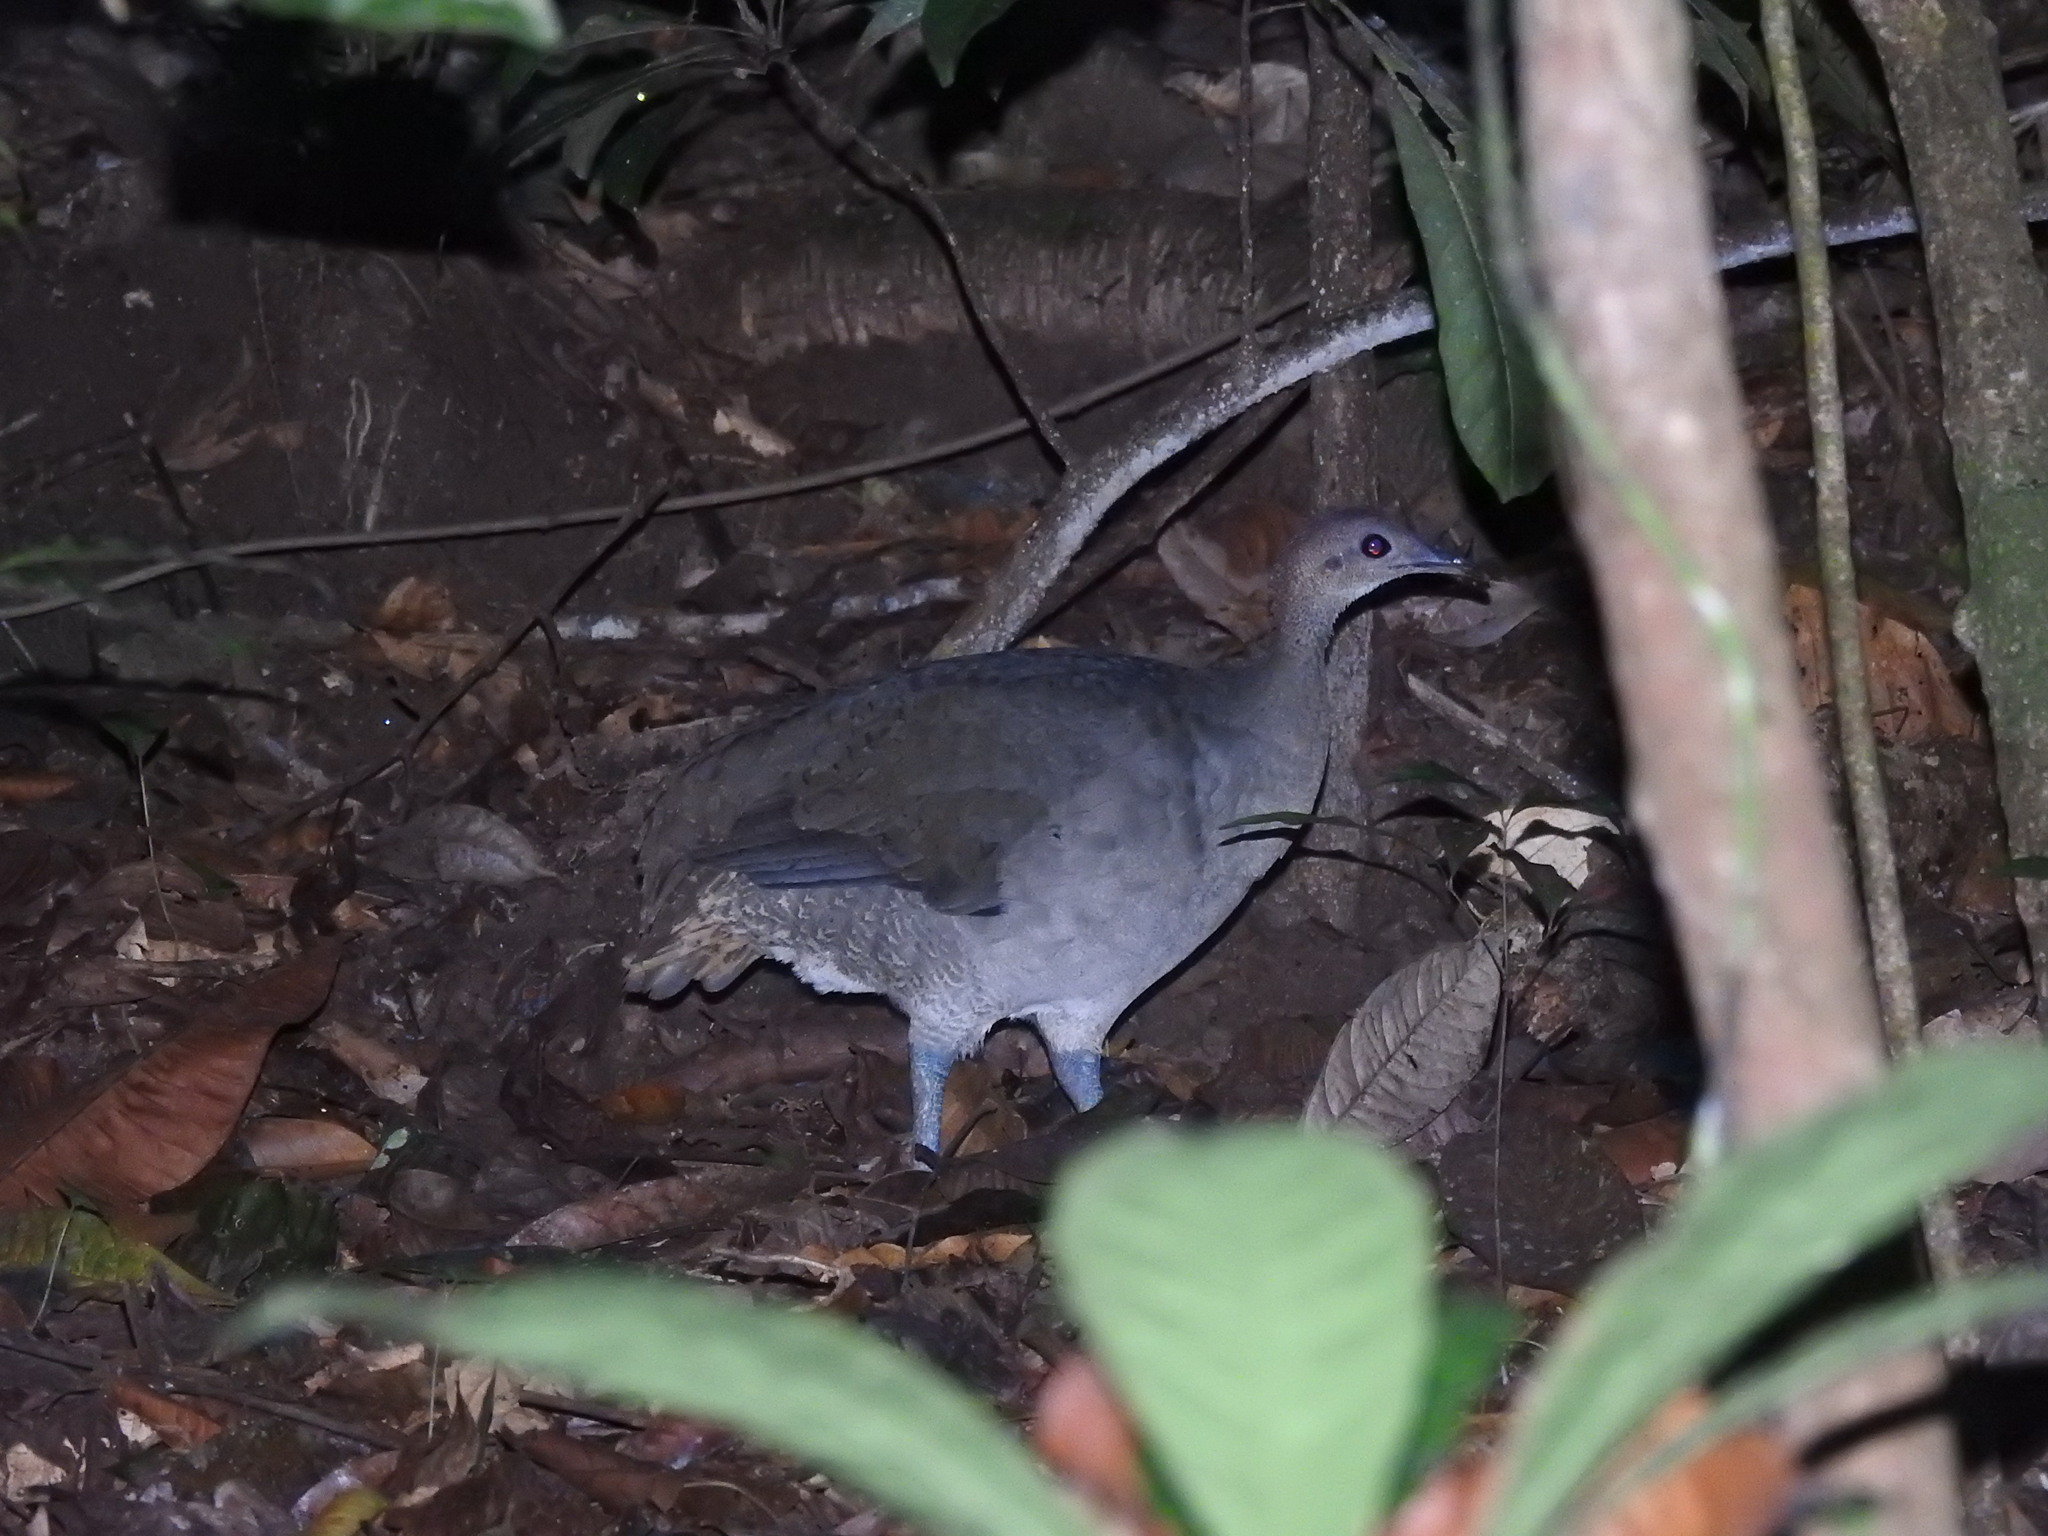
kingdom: Animalia
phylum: Chordata
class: Aves
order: Tinamiformes
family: Tinamidae
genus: Tinamus
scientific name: Tinamus major
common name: Great tinamou
